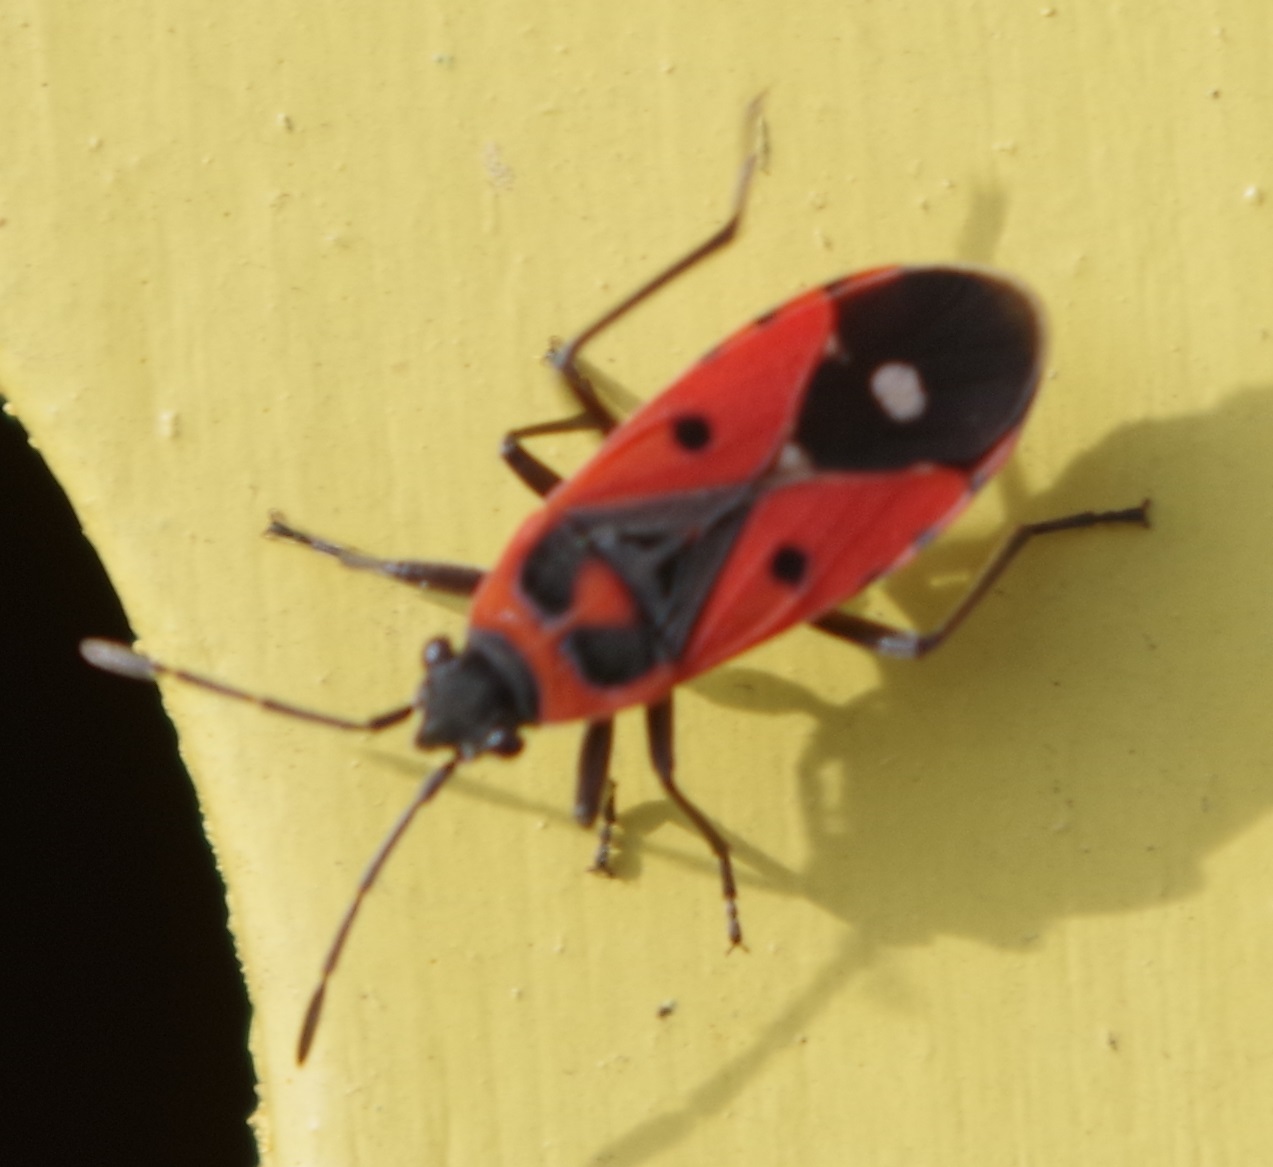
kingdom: Animalia
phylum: Arthropoda
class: Insecta
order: Hemiptera
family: Lygaeidae
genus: Melanocoryphus
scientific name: Melanocoryphus albomaculatus
